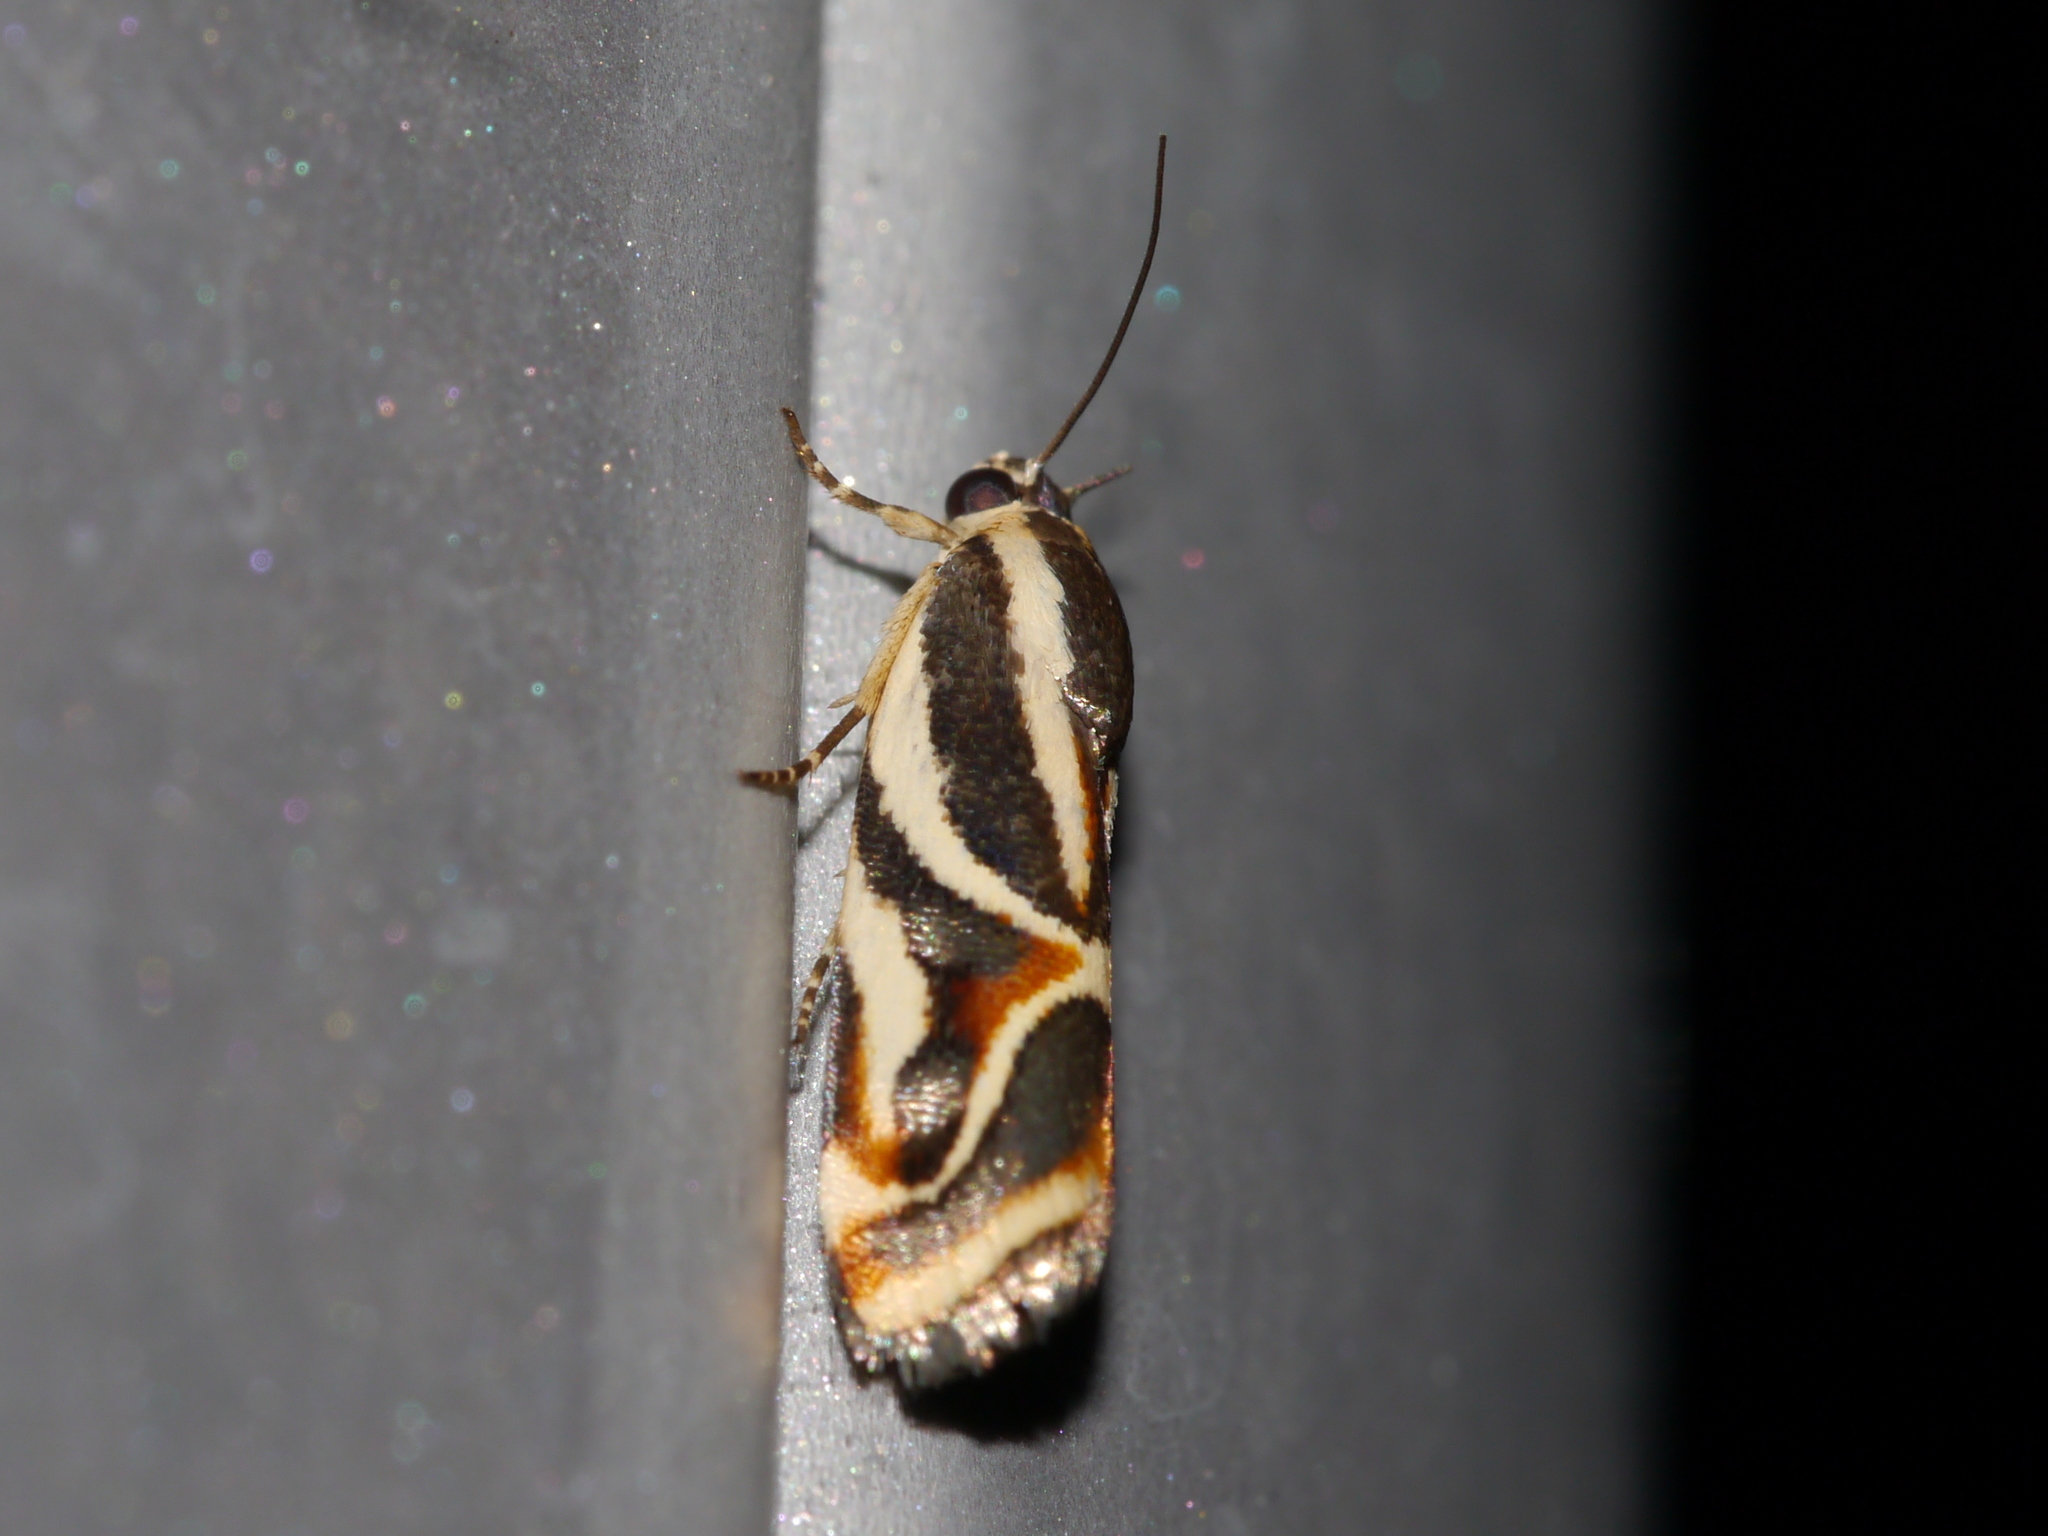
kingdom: Animalia
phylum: Arthropoda
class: Insecta
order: Lepidoptera
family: Noctuidae
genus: Spragueia
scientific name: Spragueia magnifica
